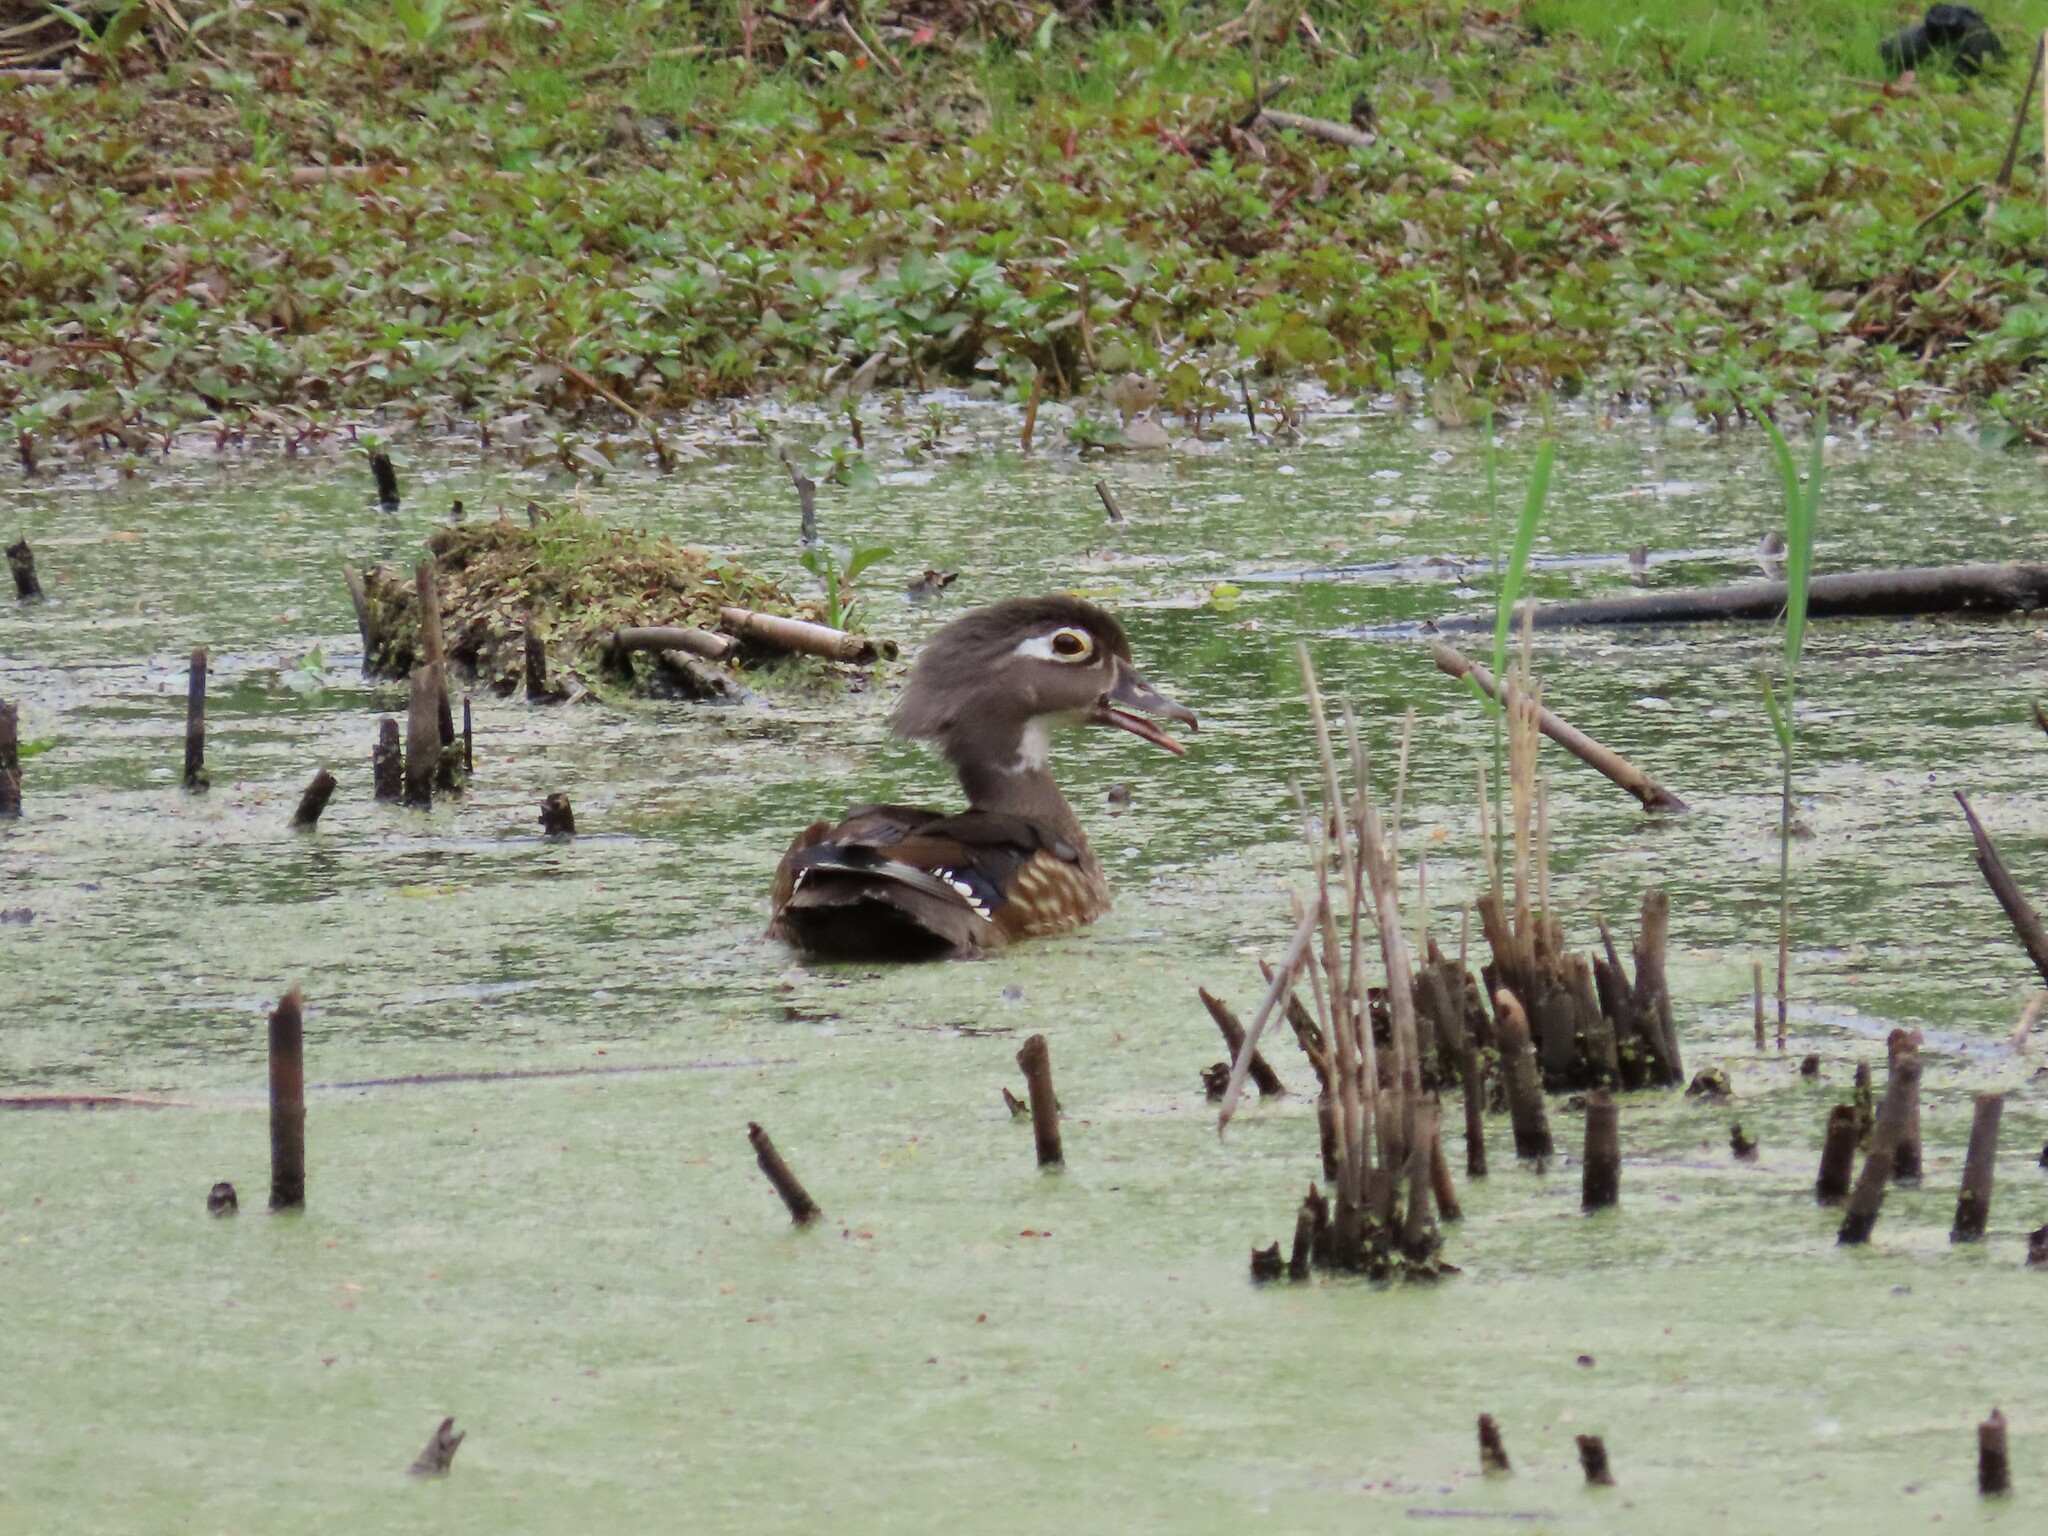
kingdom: Animalia
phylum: Chordata
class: Aves
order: Anseriformes
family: Anatidae
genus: Aix
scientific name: Aix sponsa
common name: Wood duck
